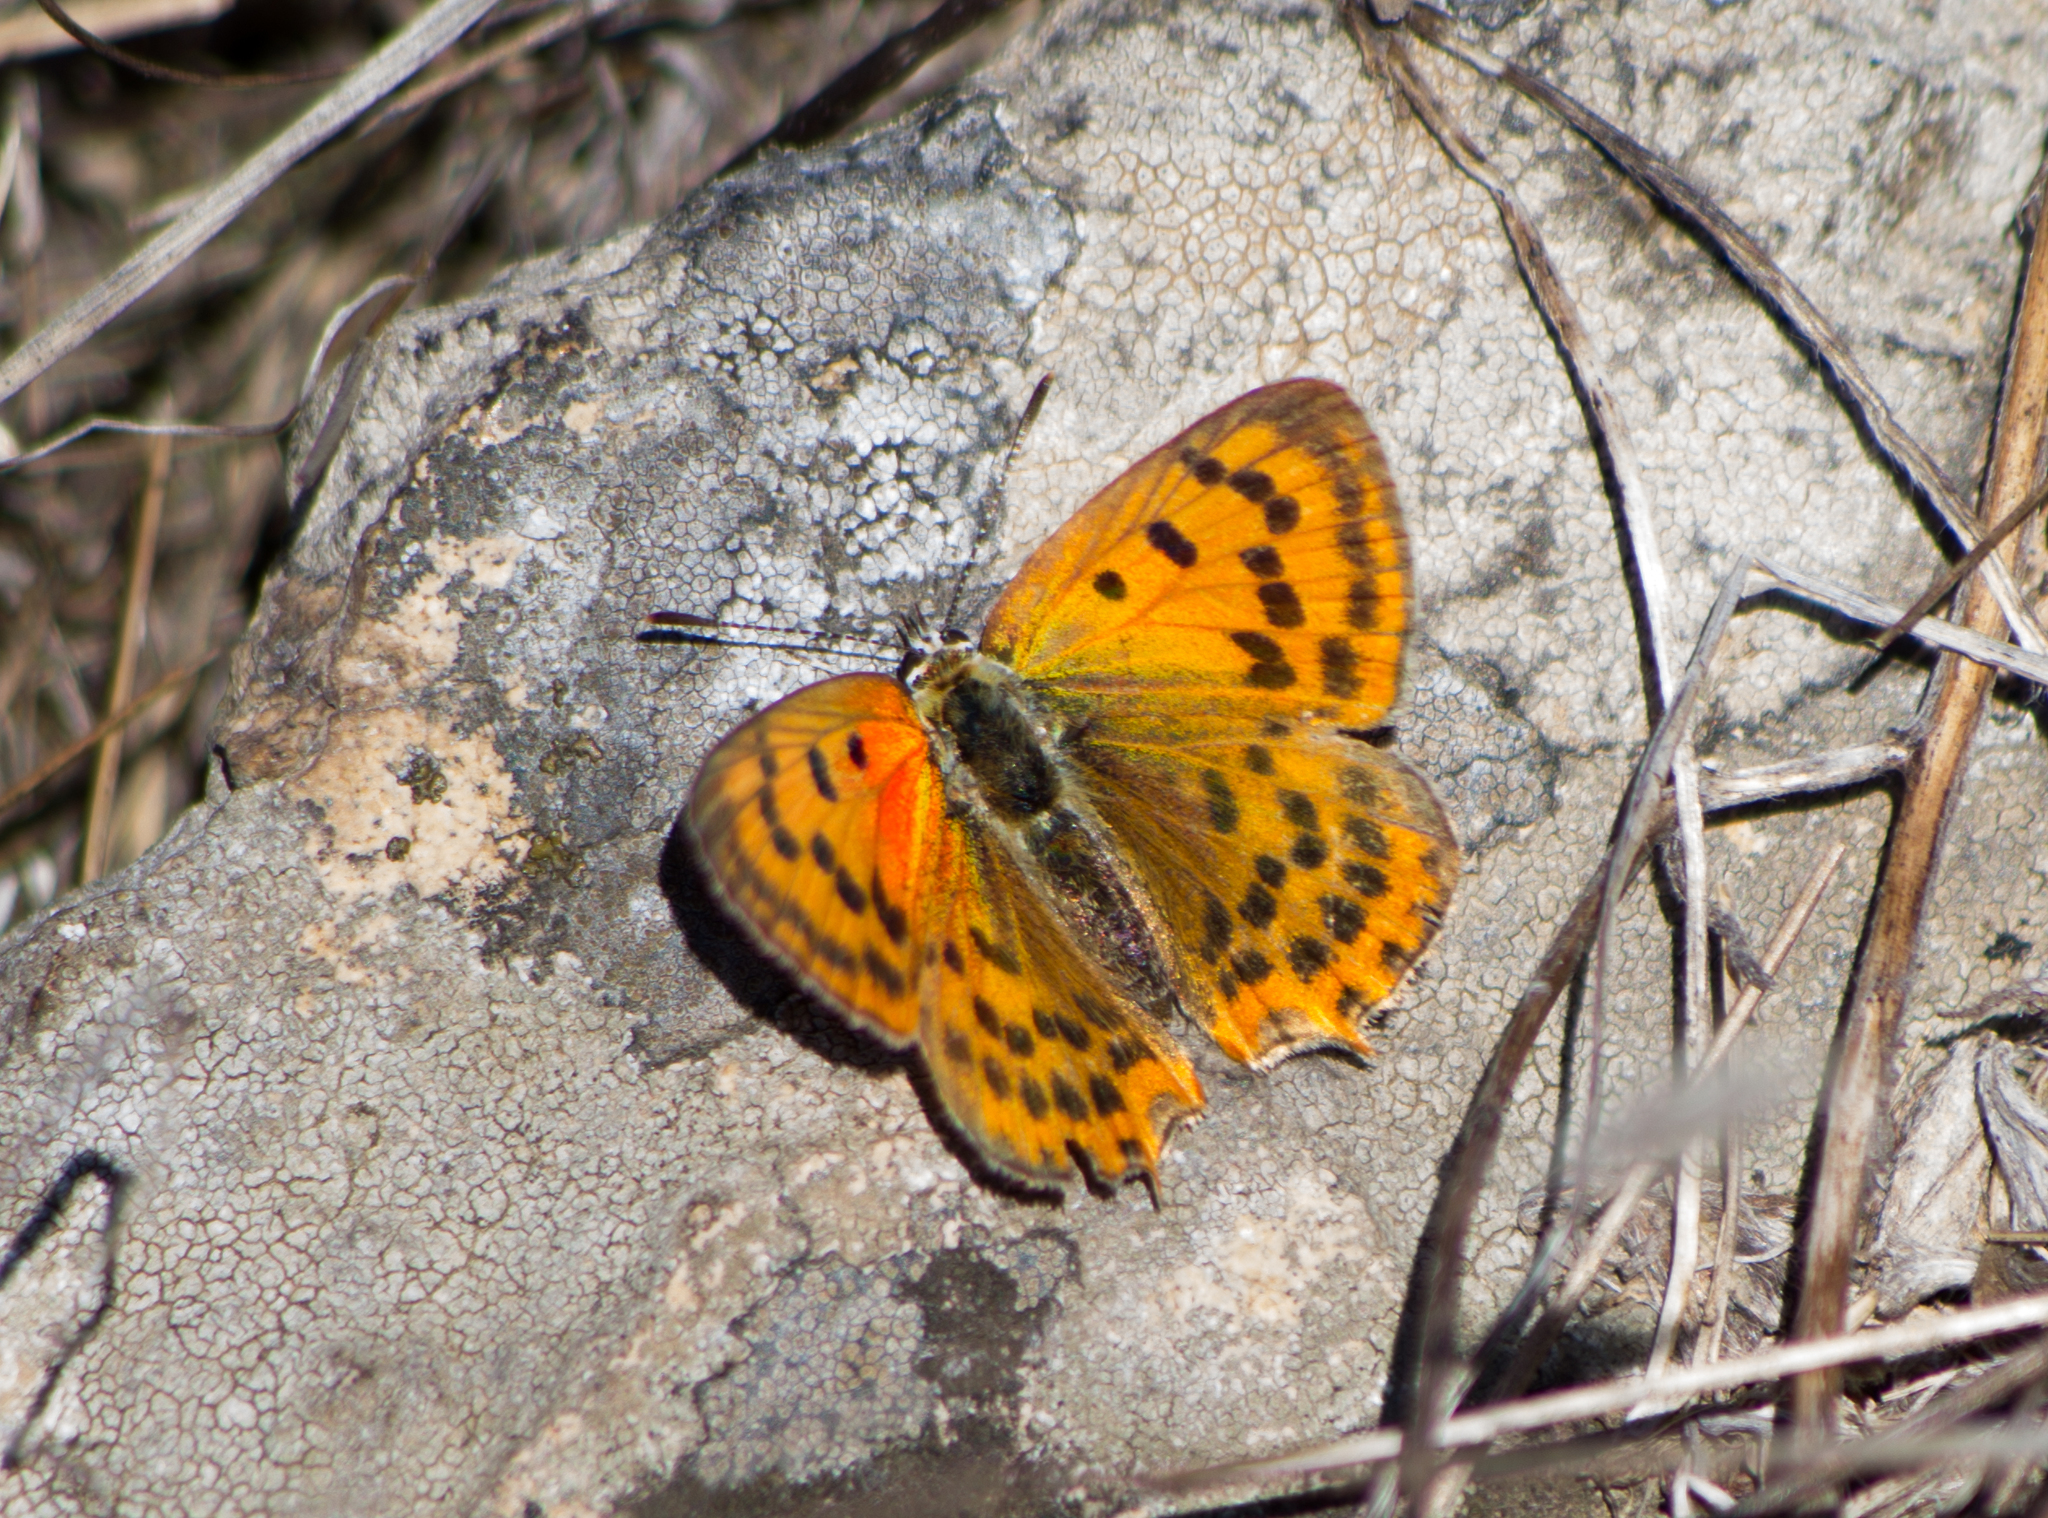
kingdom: Animalia
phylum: Arthropoda
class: Insecta
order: Lepidoptera
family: Lycaenidae
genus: Polyommatus
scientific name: Polyommatus ottomanus
